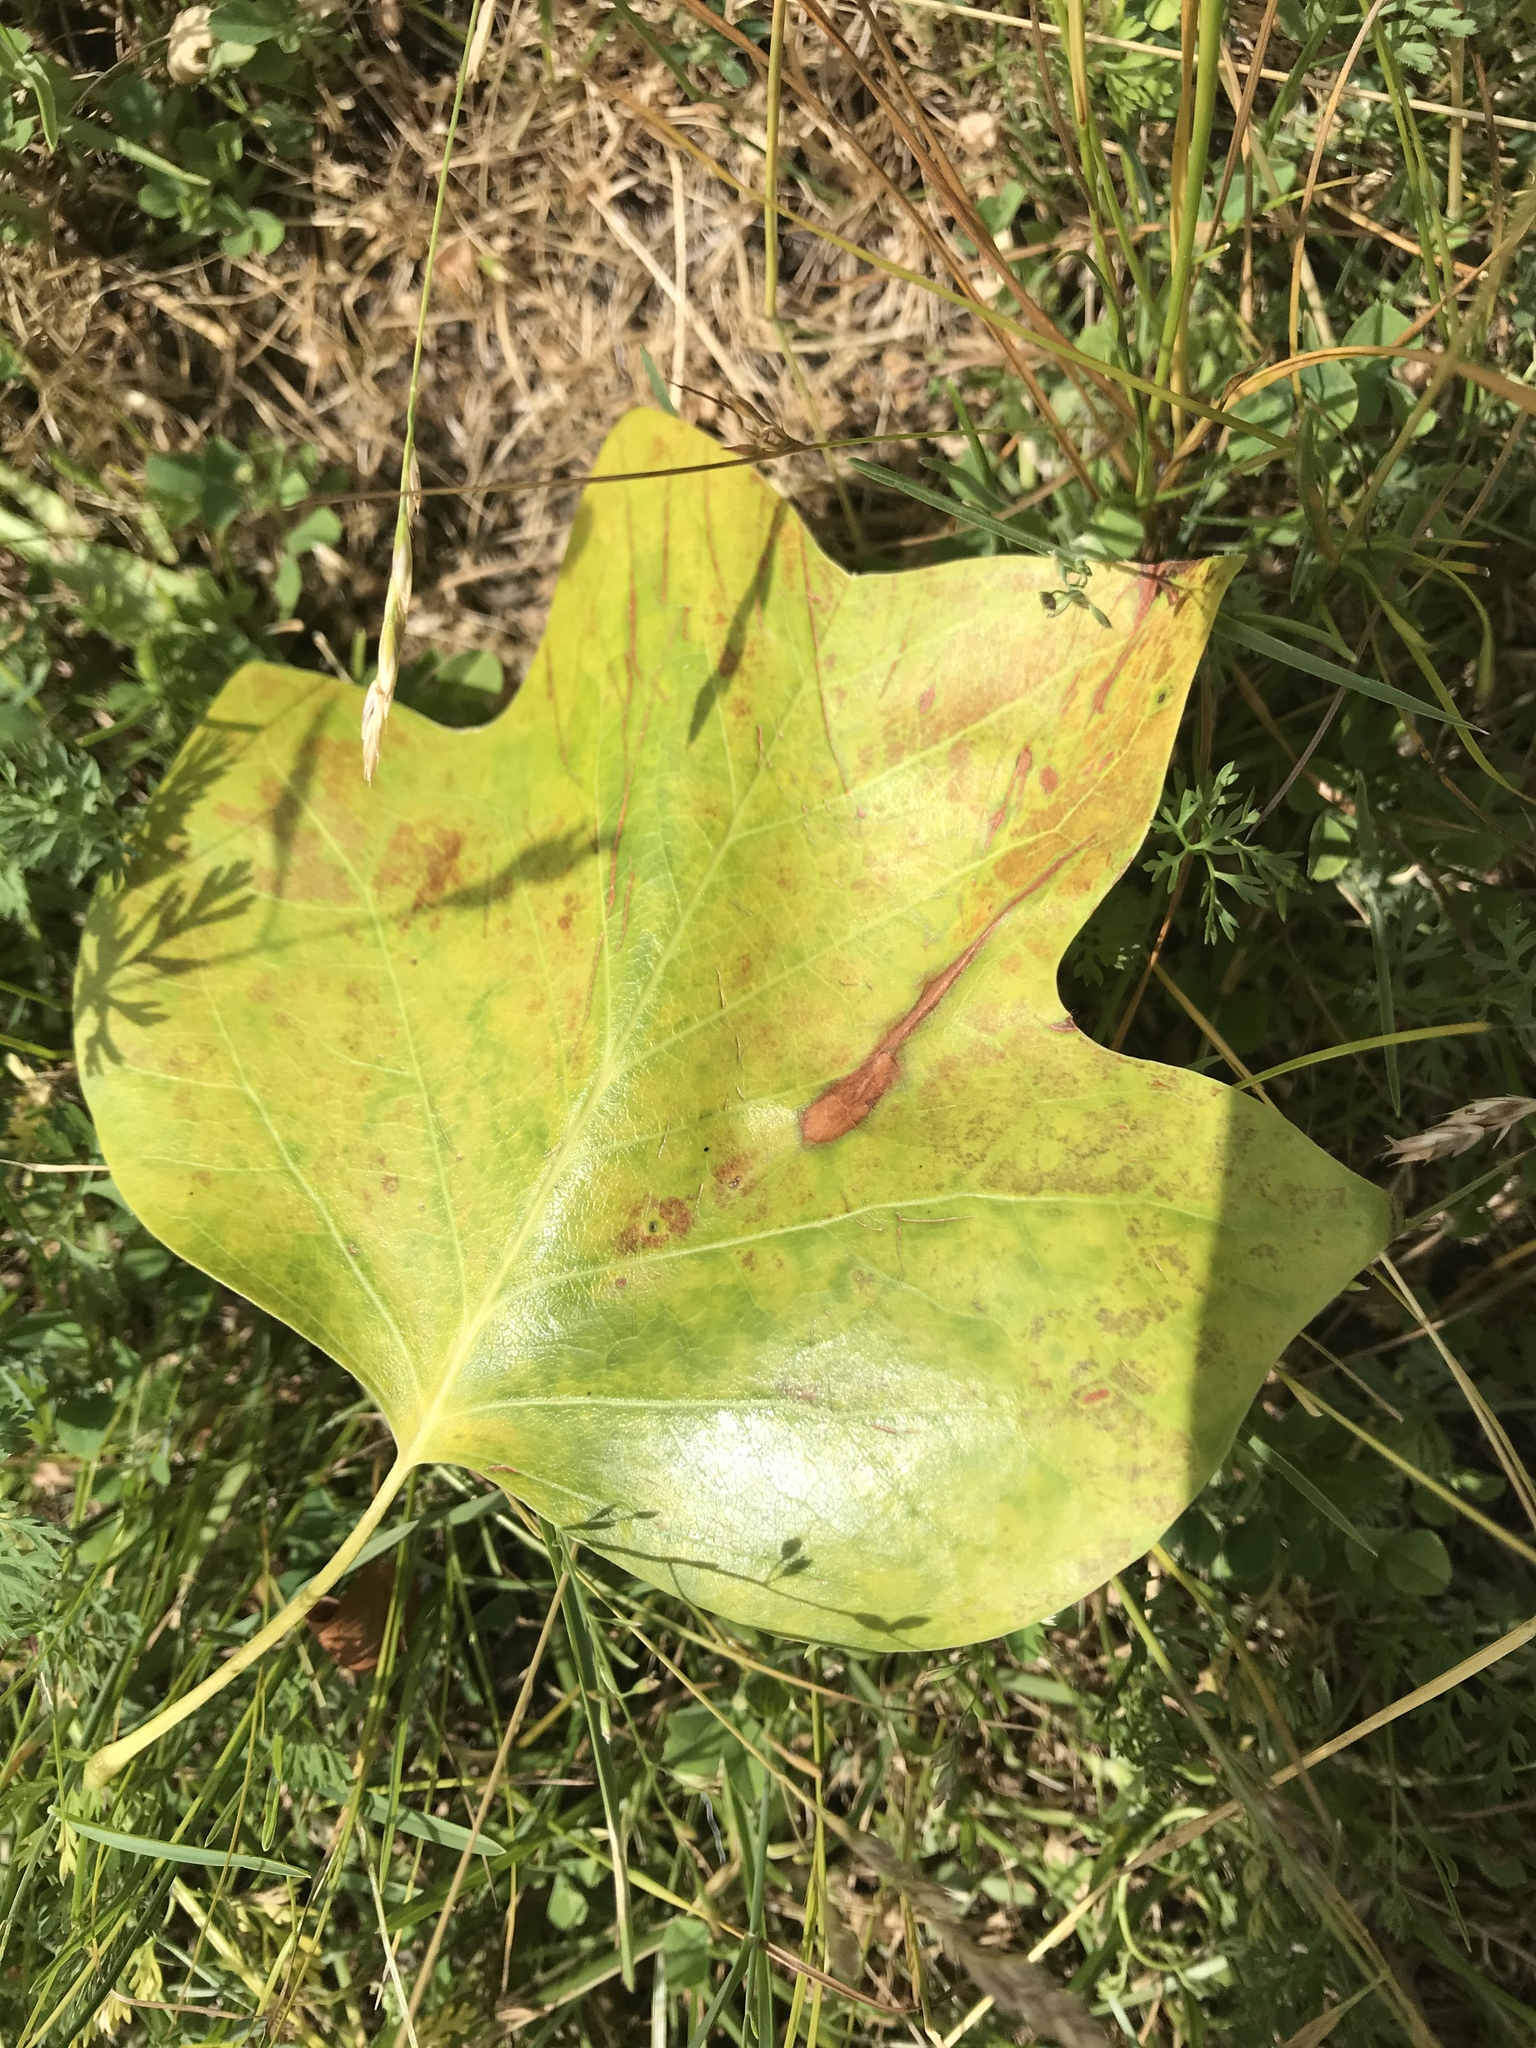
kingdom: Plantae
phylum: Tracheophyta
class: Magnoliopsida
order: Magnoliales
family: Magnoliaceae
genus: Liriodendron
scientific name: Liriodendron tulipifera
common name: Tulip tree
